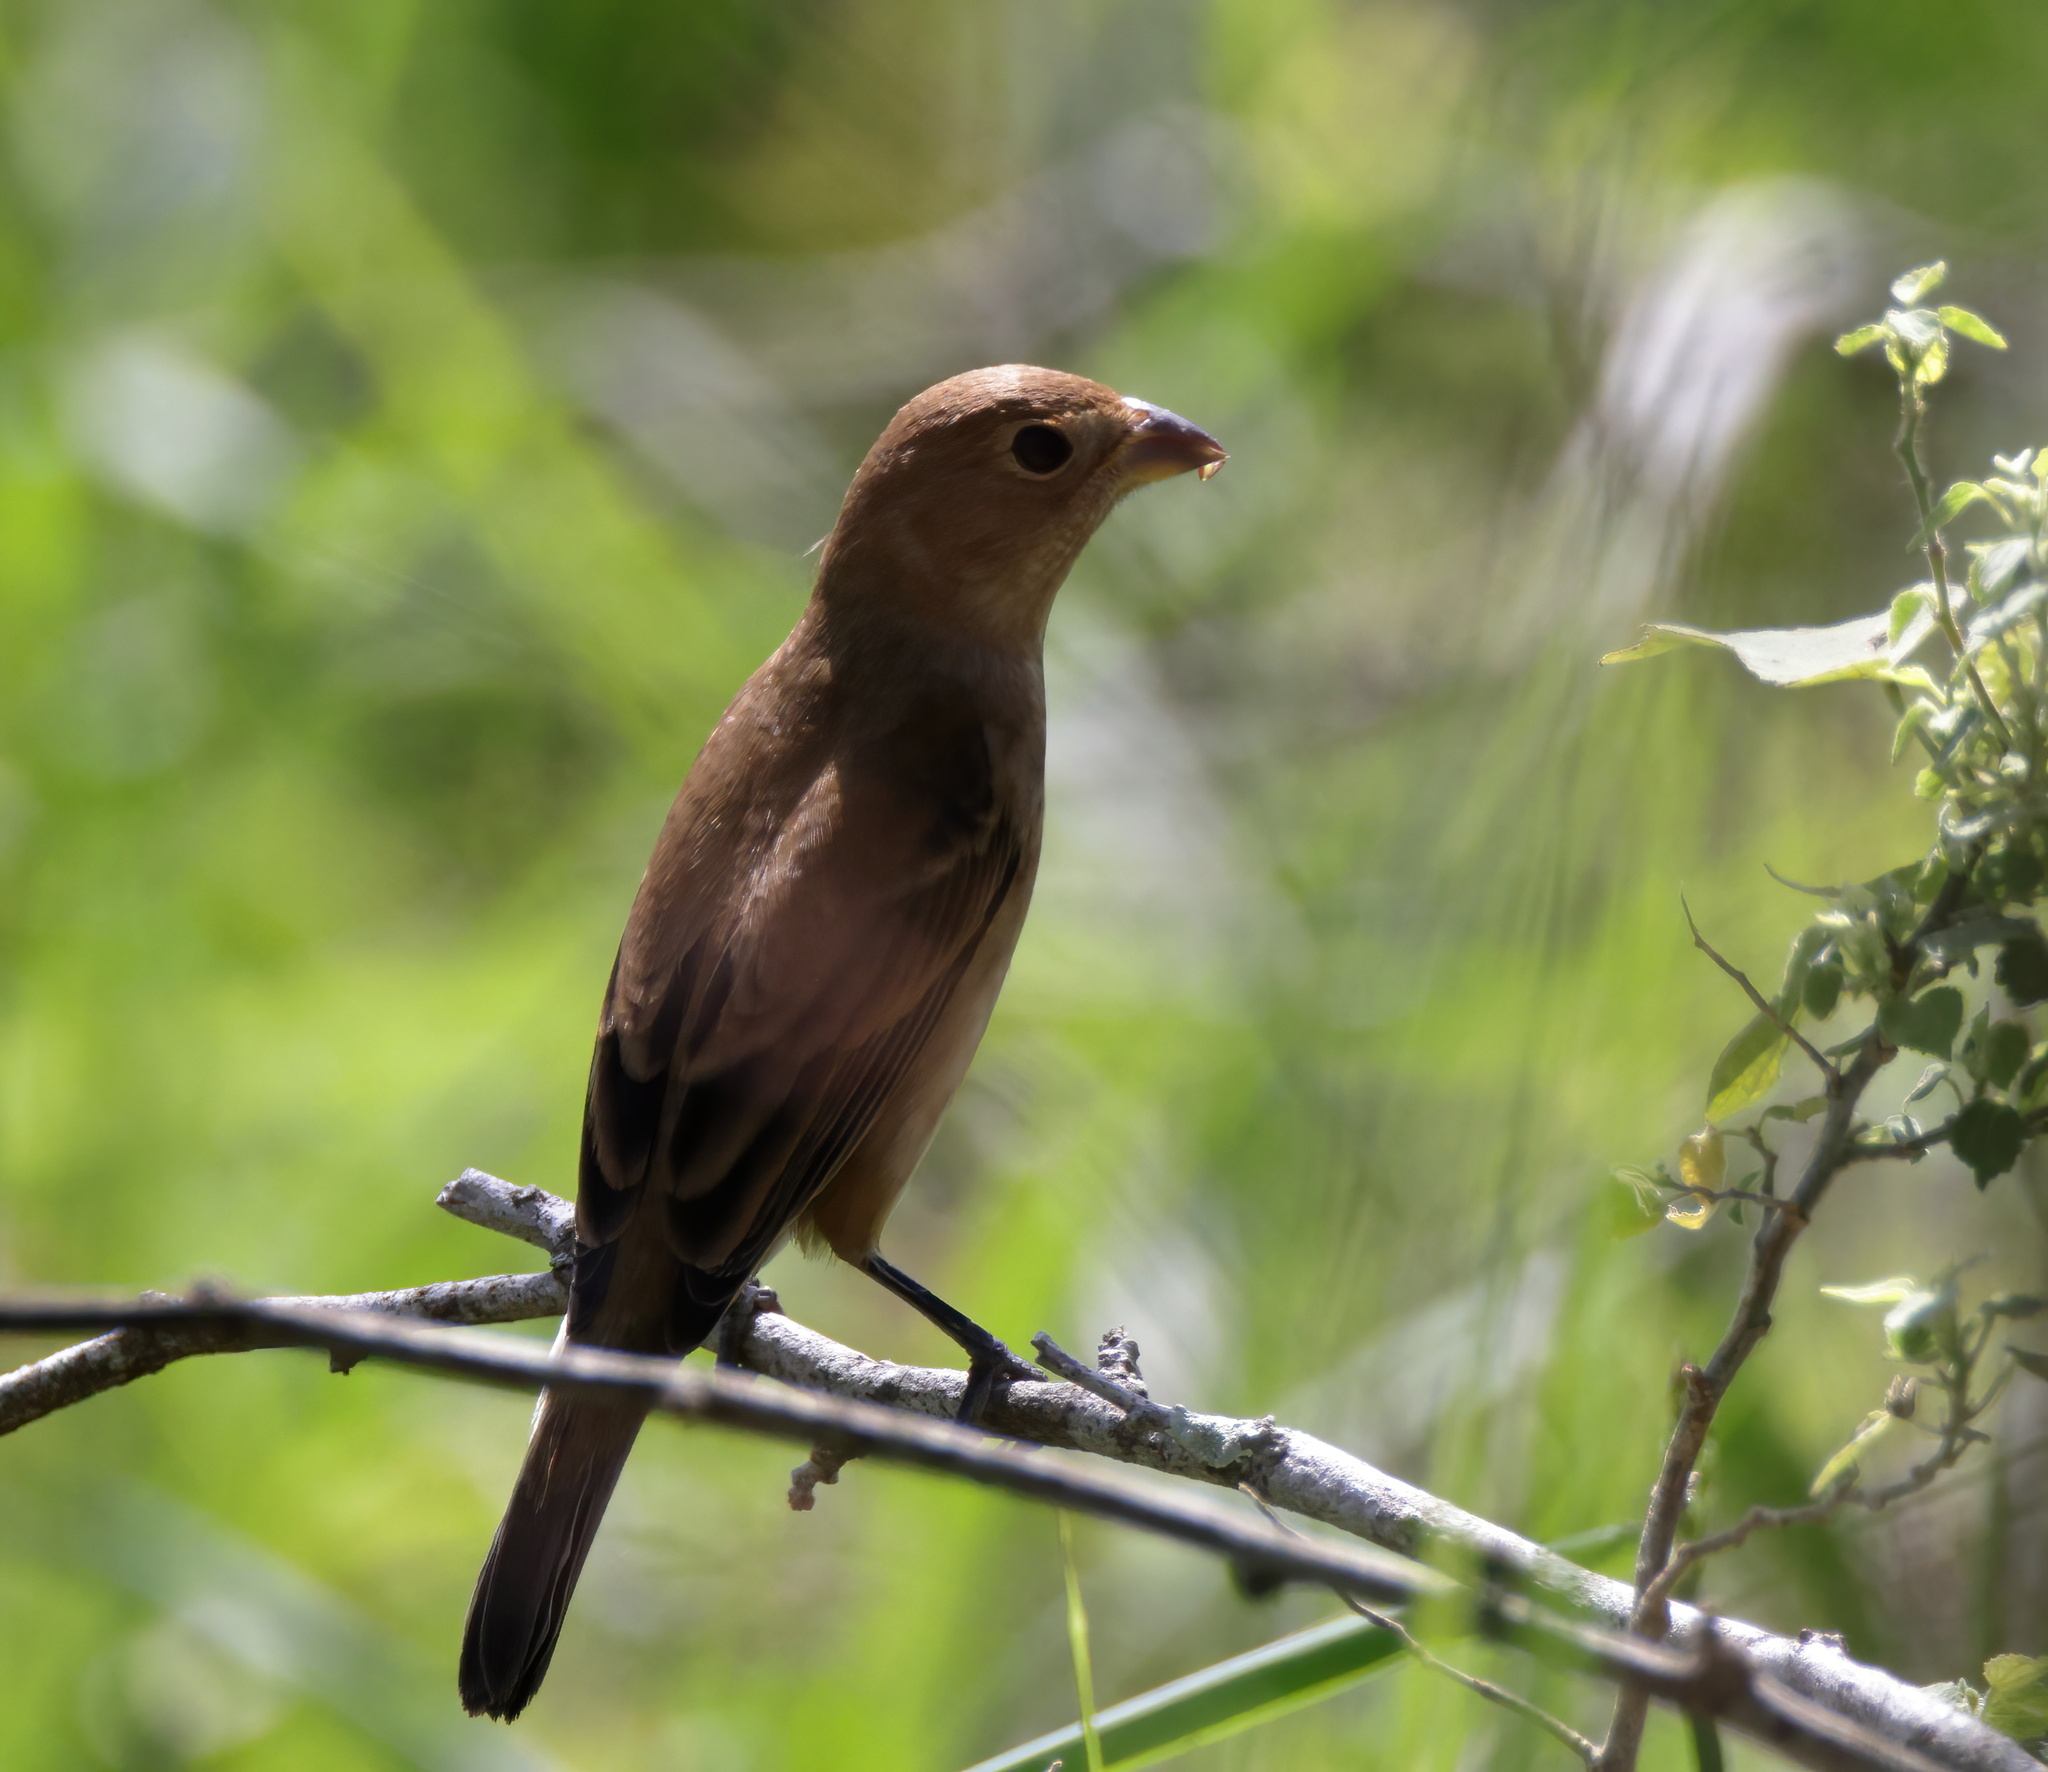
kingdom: Animalia
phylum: Chordata
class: Aves
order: Passeriformes
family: Cardinalidae
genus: Passerina
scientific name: Passerina cyanea
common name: Indigo bunting
